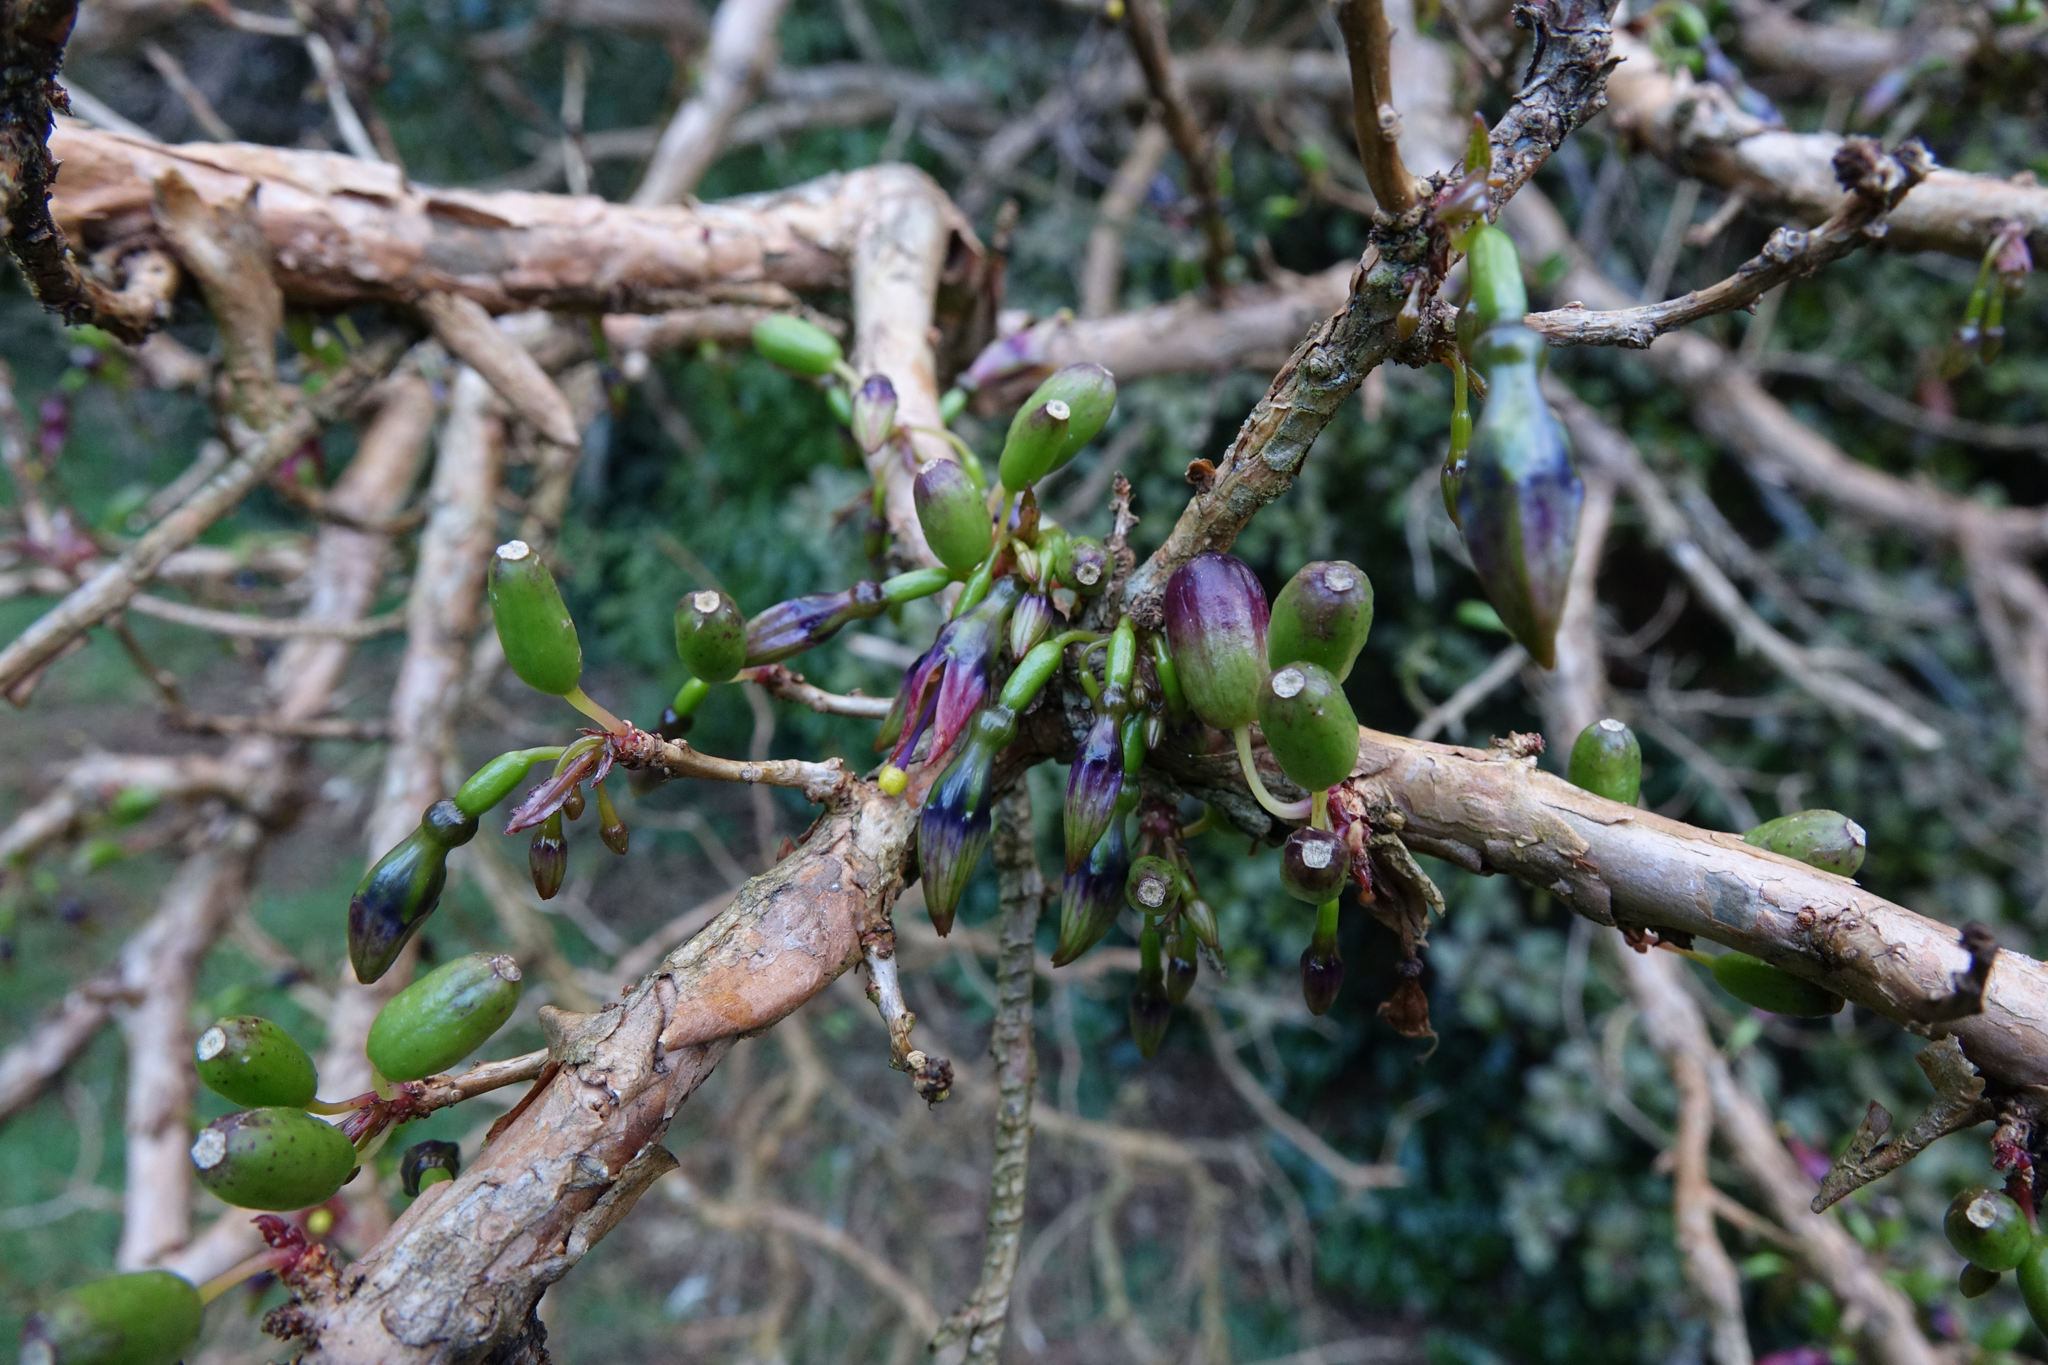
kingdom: Plantae
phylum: Tracheophyta
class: Magnoliopsida
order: Myrtales
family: Onagraceae
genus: Fuchsia
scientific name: Fuchsia excorticata
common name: Tree fuchsia
